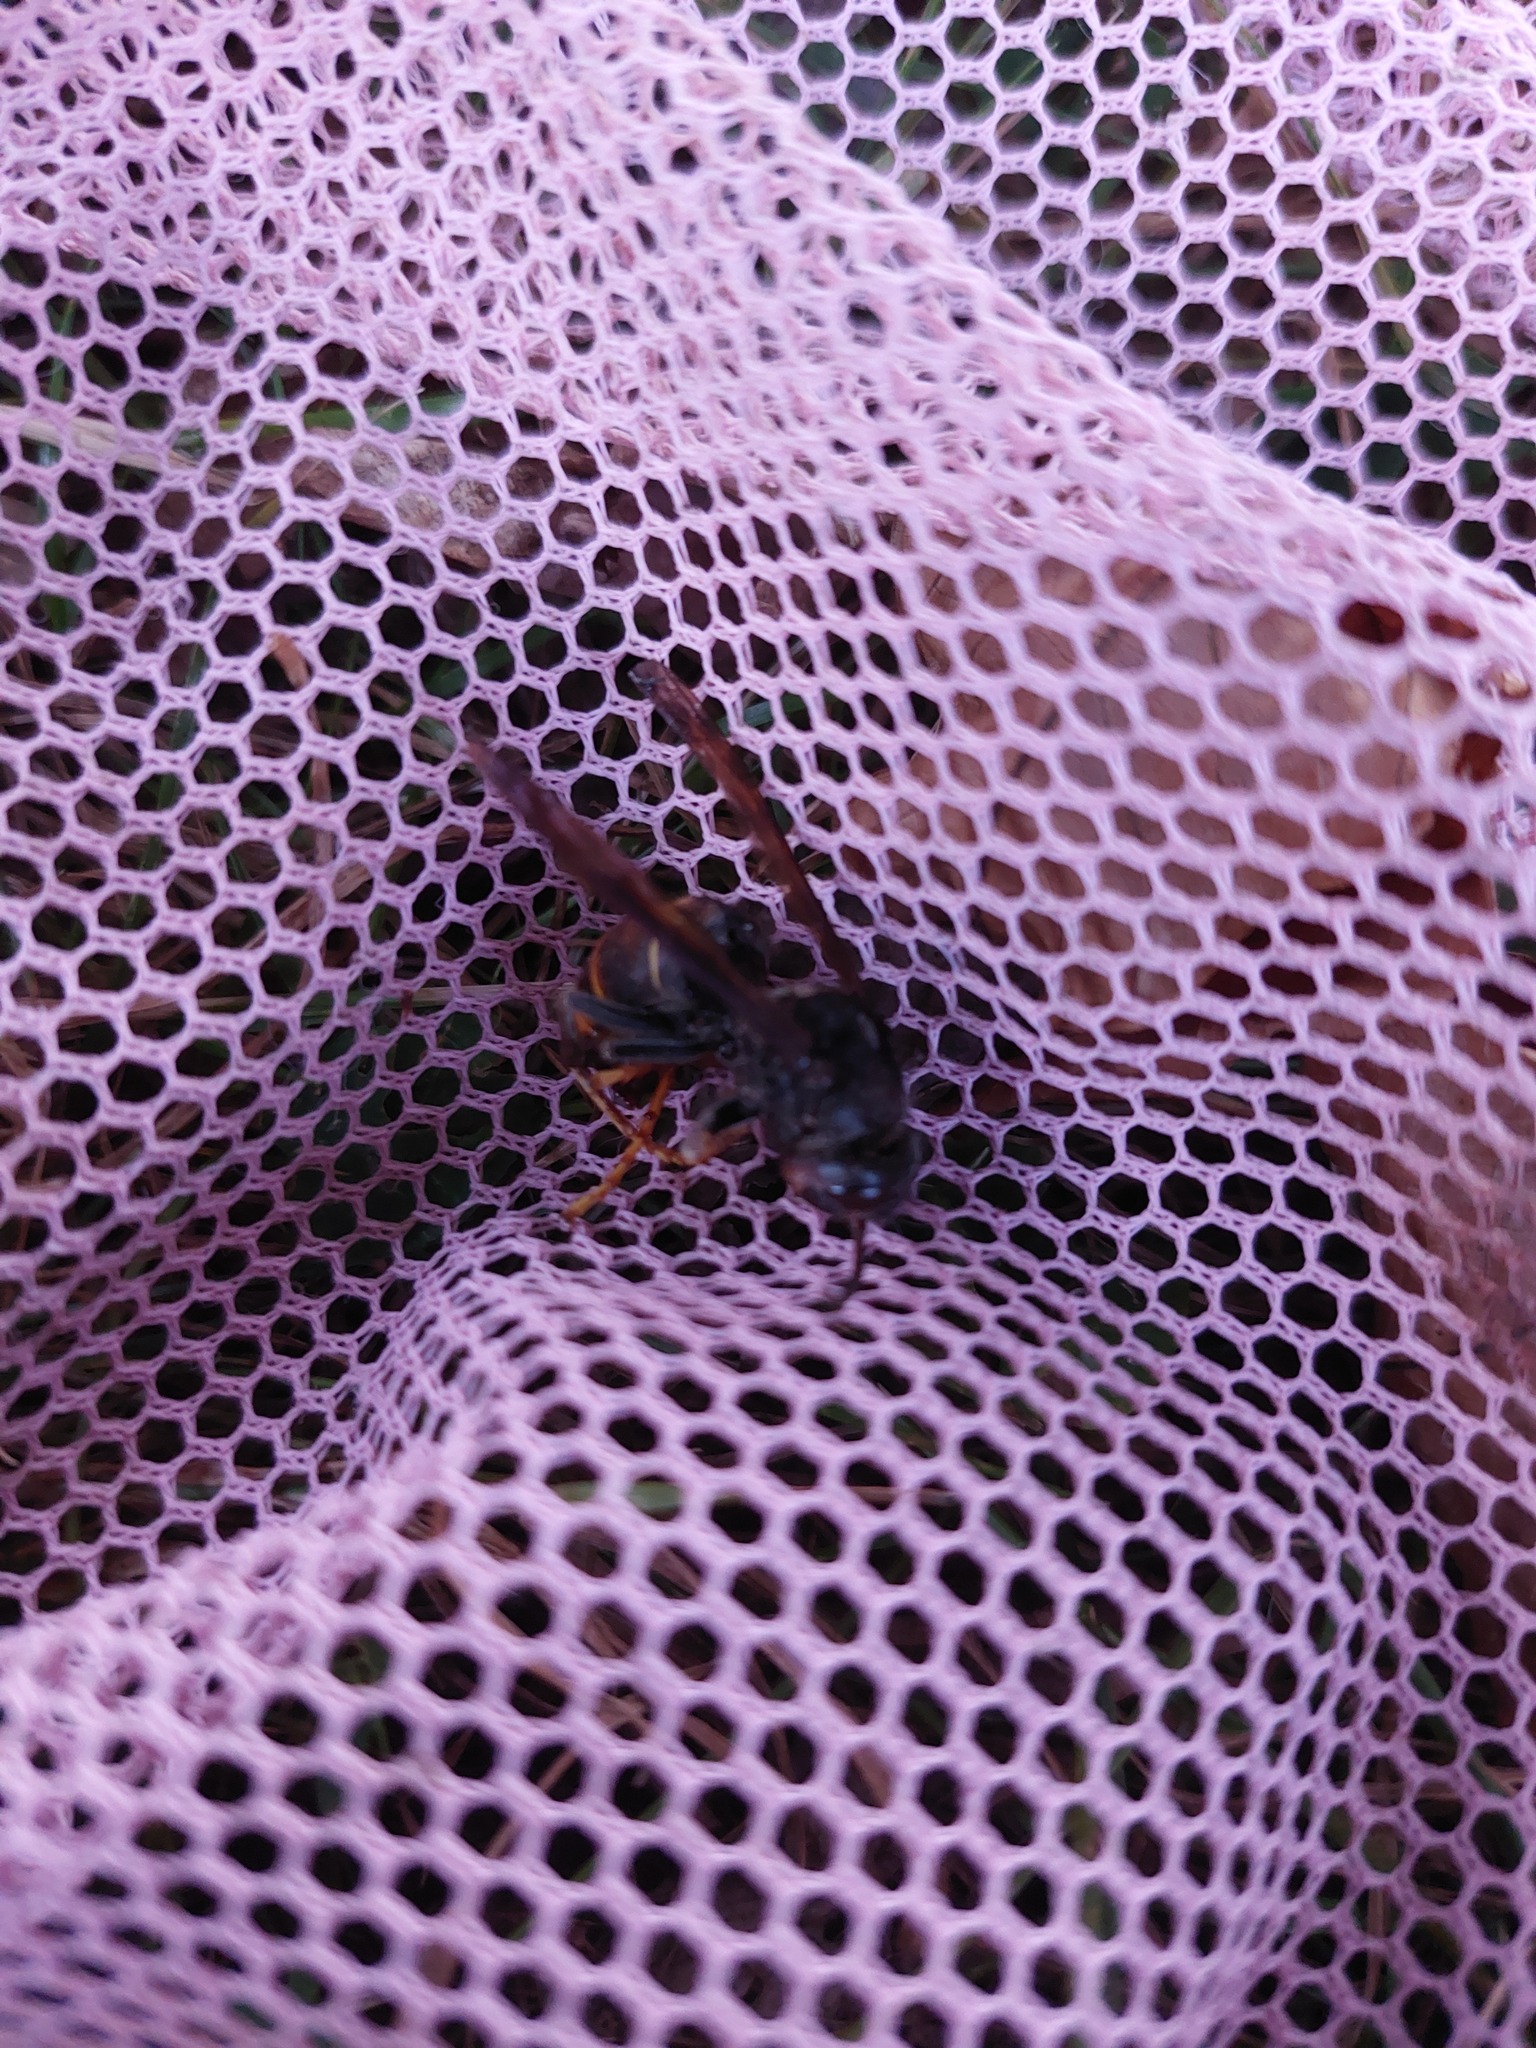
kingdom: Animalia
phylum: Arthropoda
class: Insecta
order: Hymenoptera
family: Vespidae
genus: Vespa
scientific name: Vespa velutina
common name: Asian hornet
